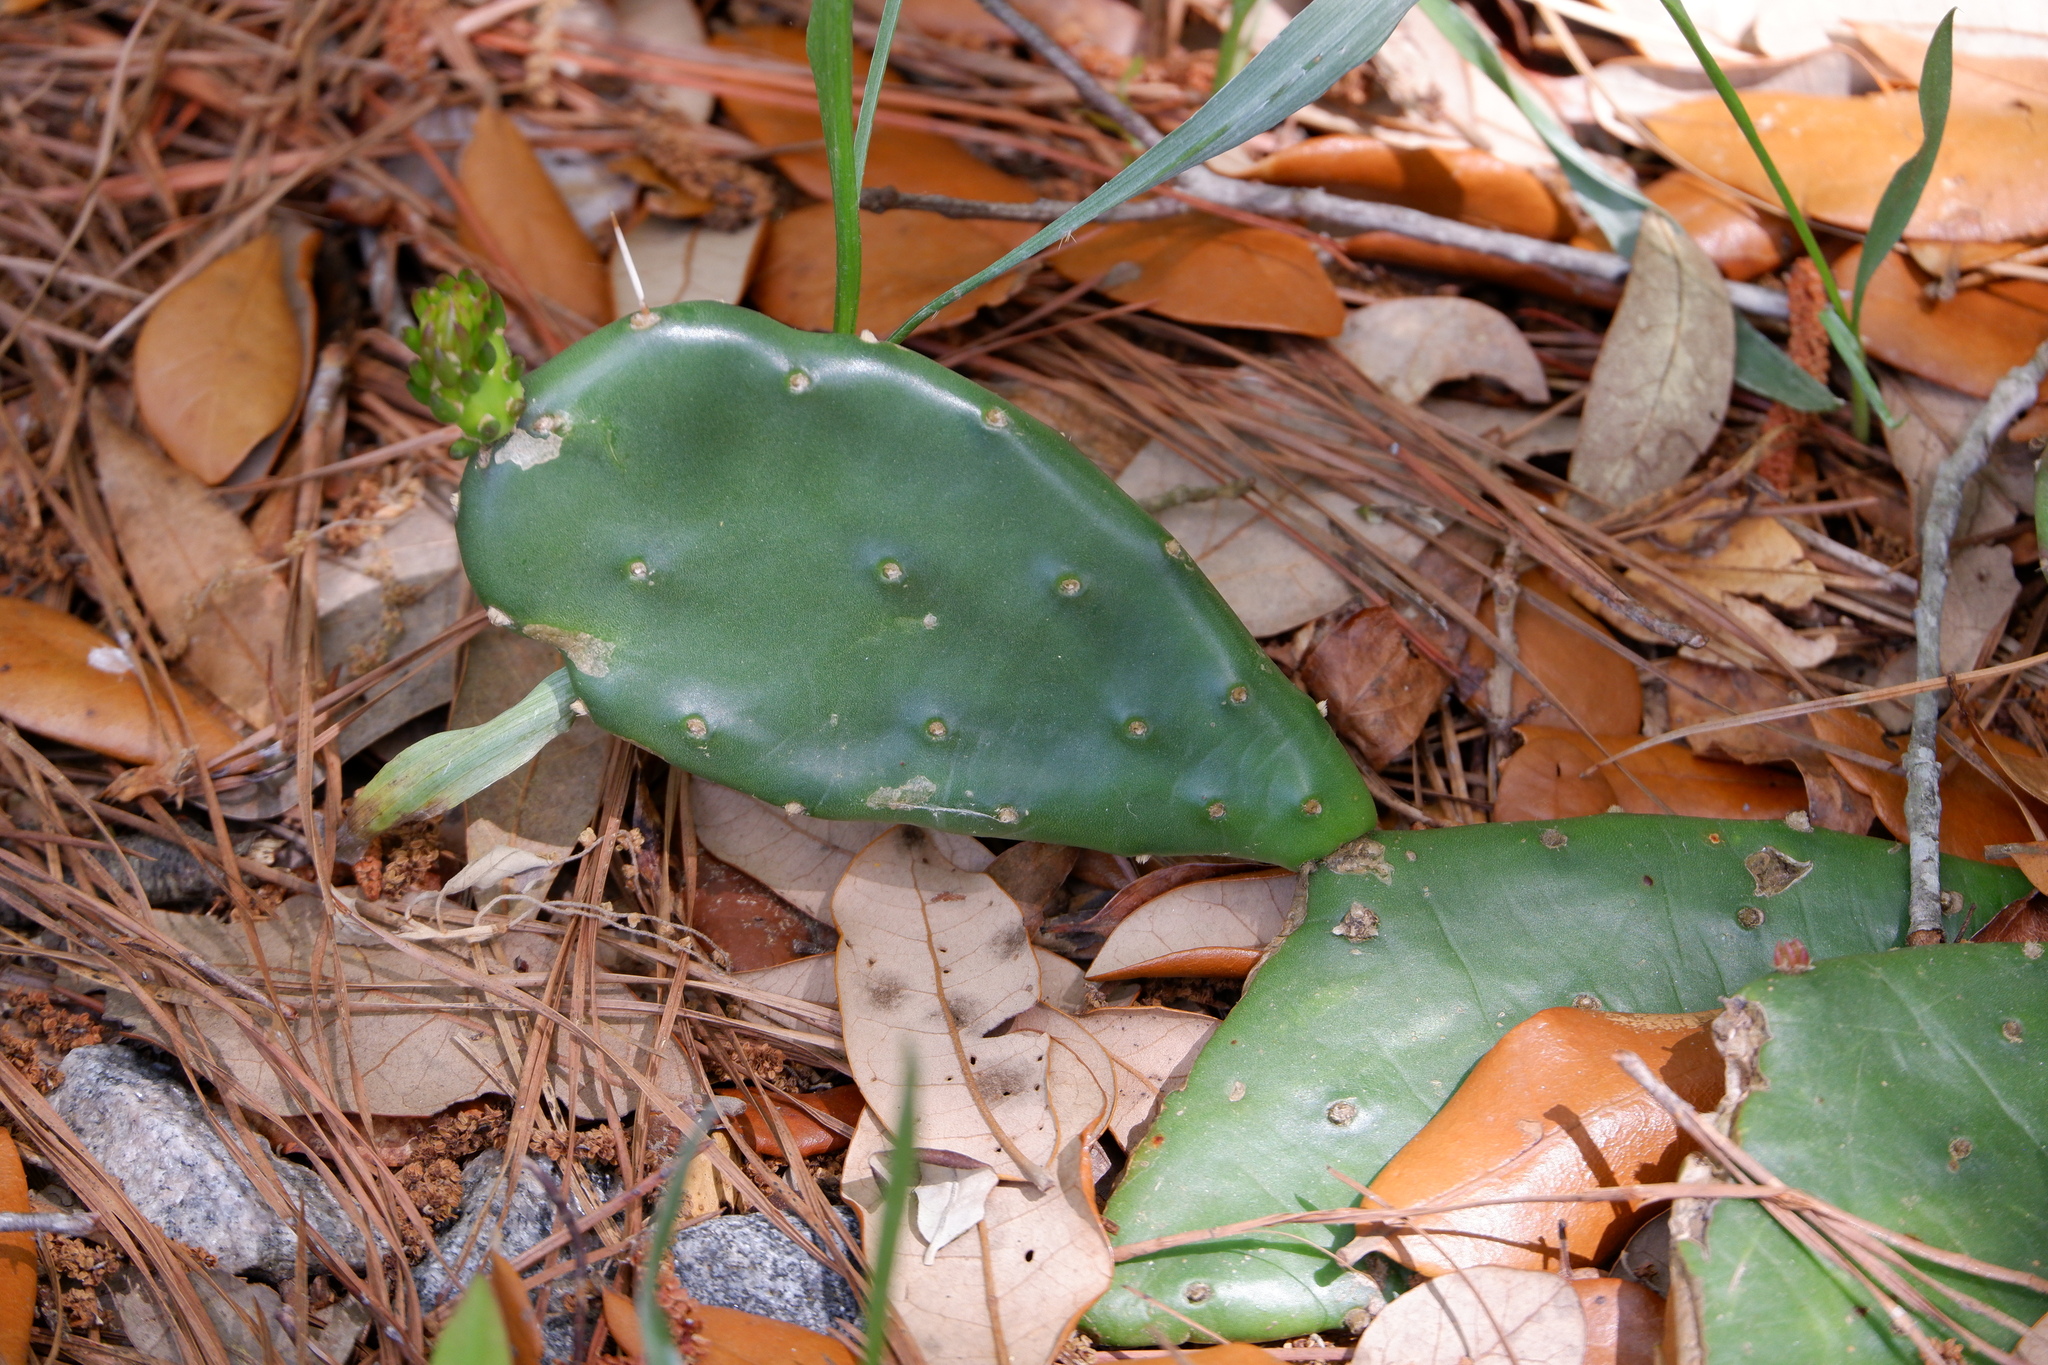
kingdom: Plantae
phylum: Tracheophyta
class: Magnoliopsida
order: Caryophyllales
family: Cactaceae
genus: Opuntia
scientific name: Opuntia humifusa
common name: Eastern prickly-pear
